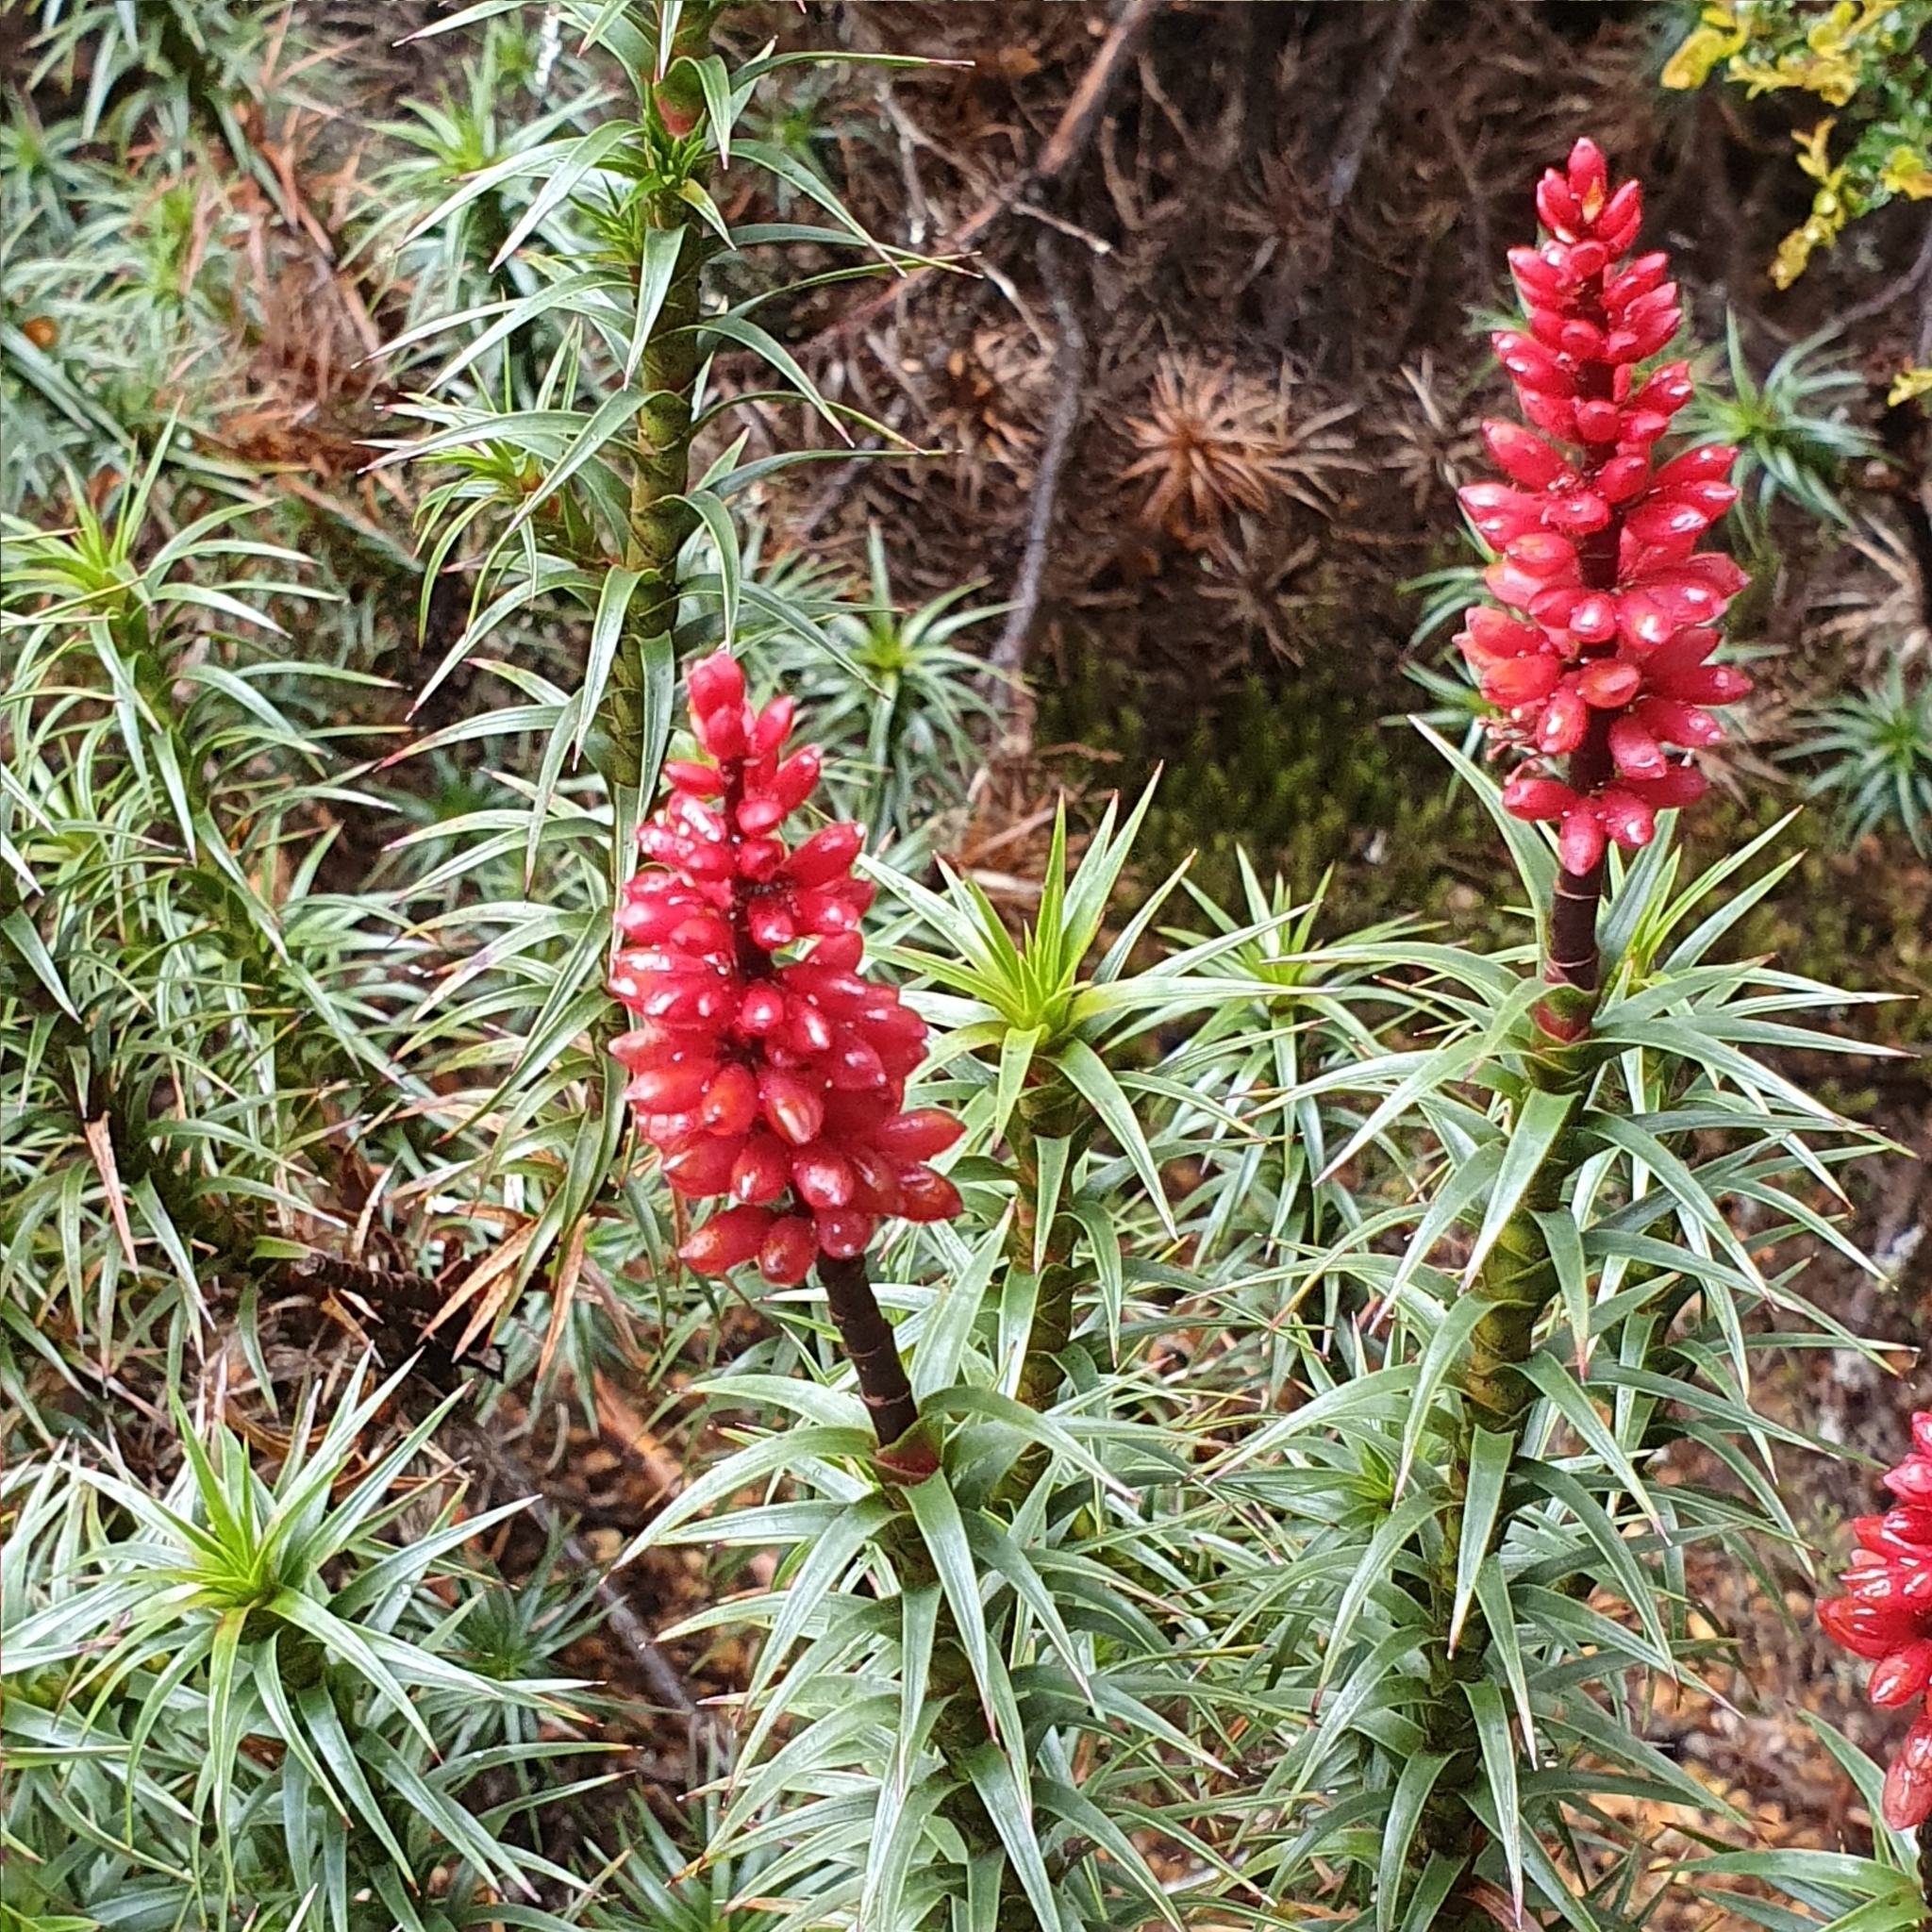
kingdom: Plantae
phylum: Tracheophyta
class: Magnoliopsida
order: Ericales
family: Ericaceae
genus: Dracophyllum
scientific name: Dracophyllum persistentifolium
